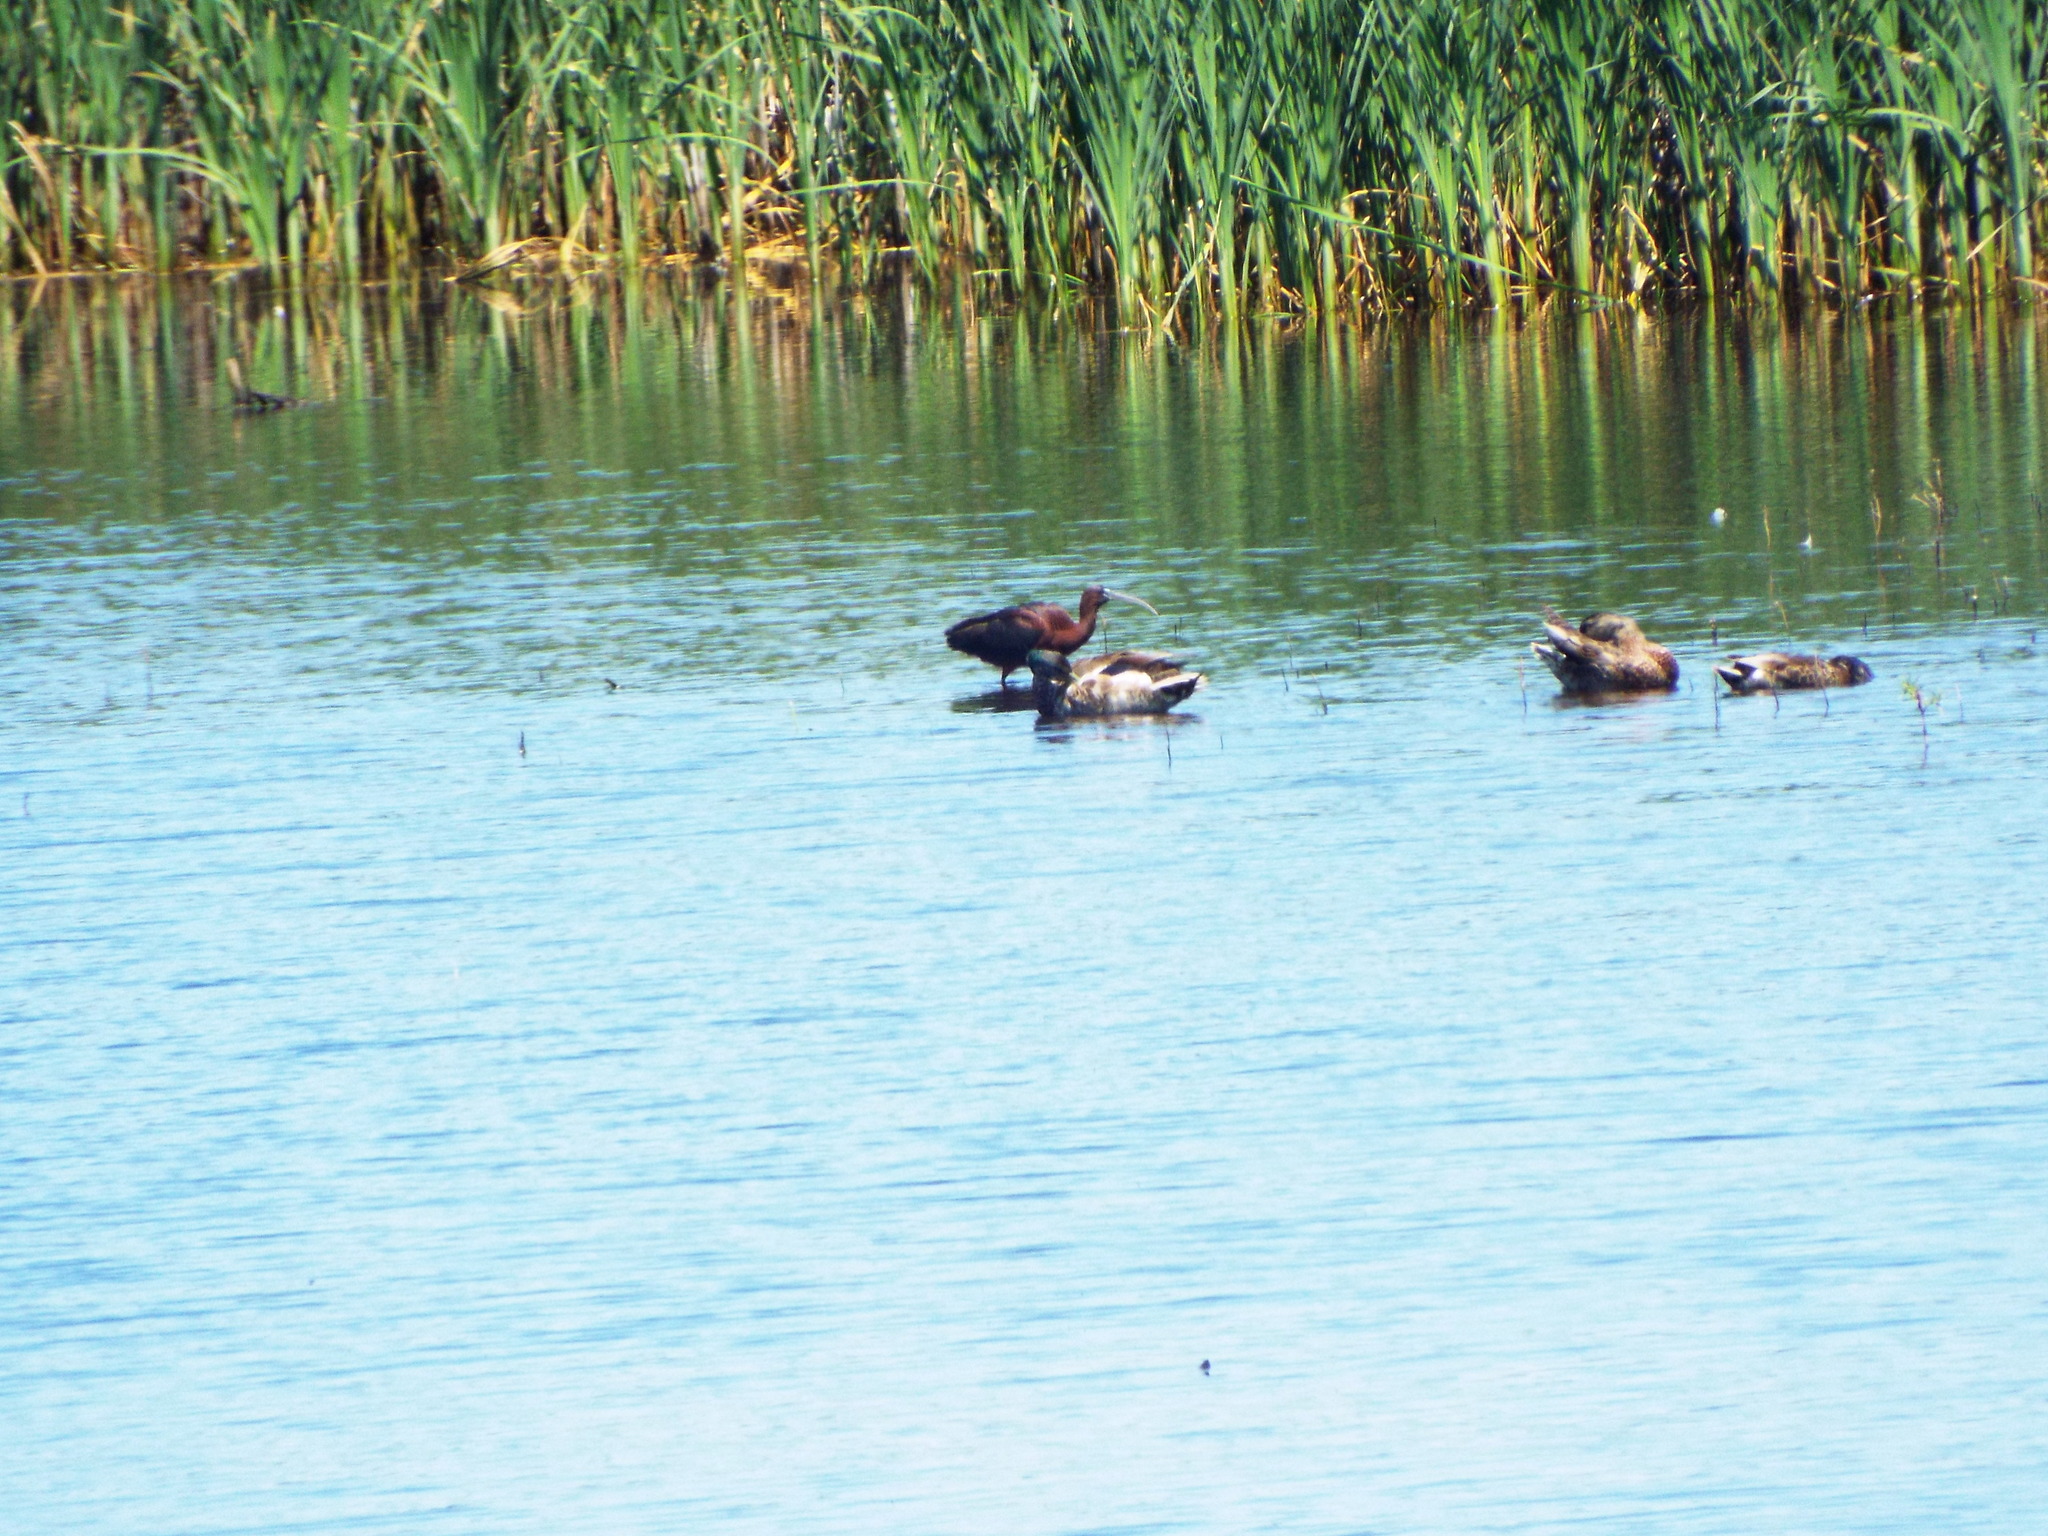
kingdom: Animalia
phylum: Chordata
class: Aves
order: Pelecaniformes
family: Threskiornithidae
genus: Plegadis
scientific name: Plegadis falcinellus
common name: Glossy ibis
